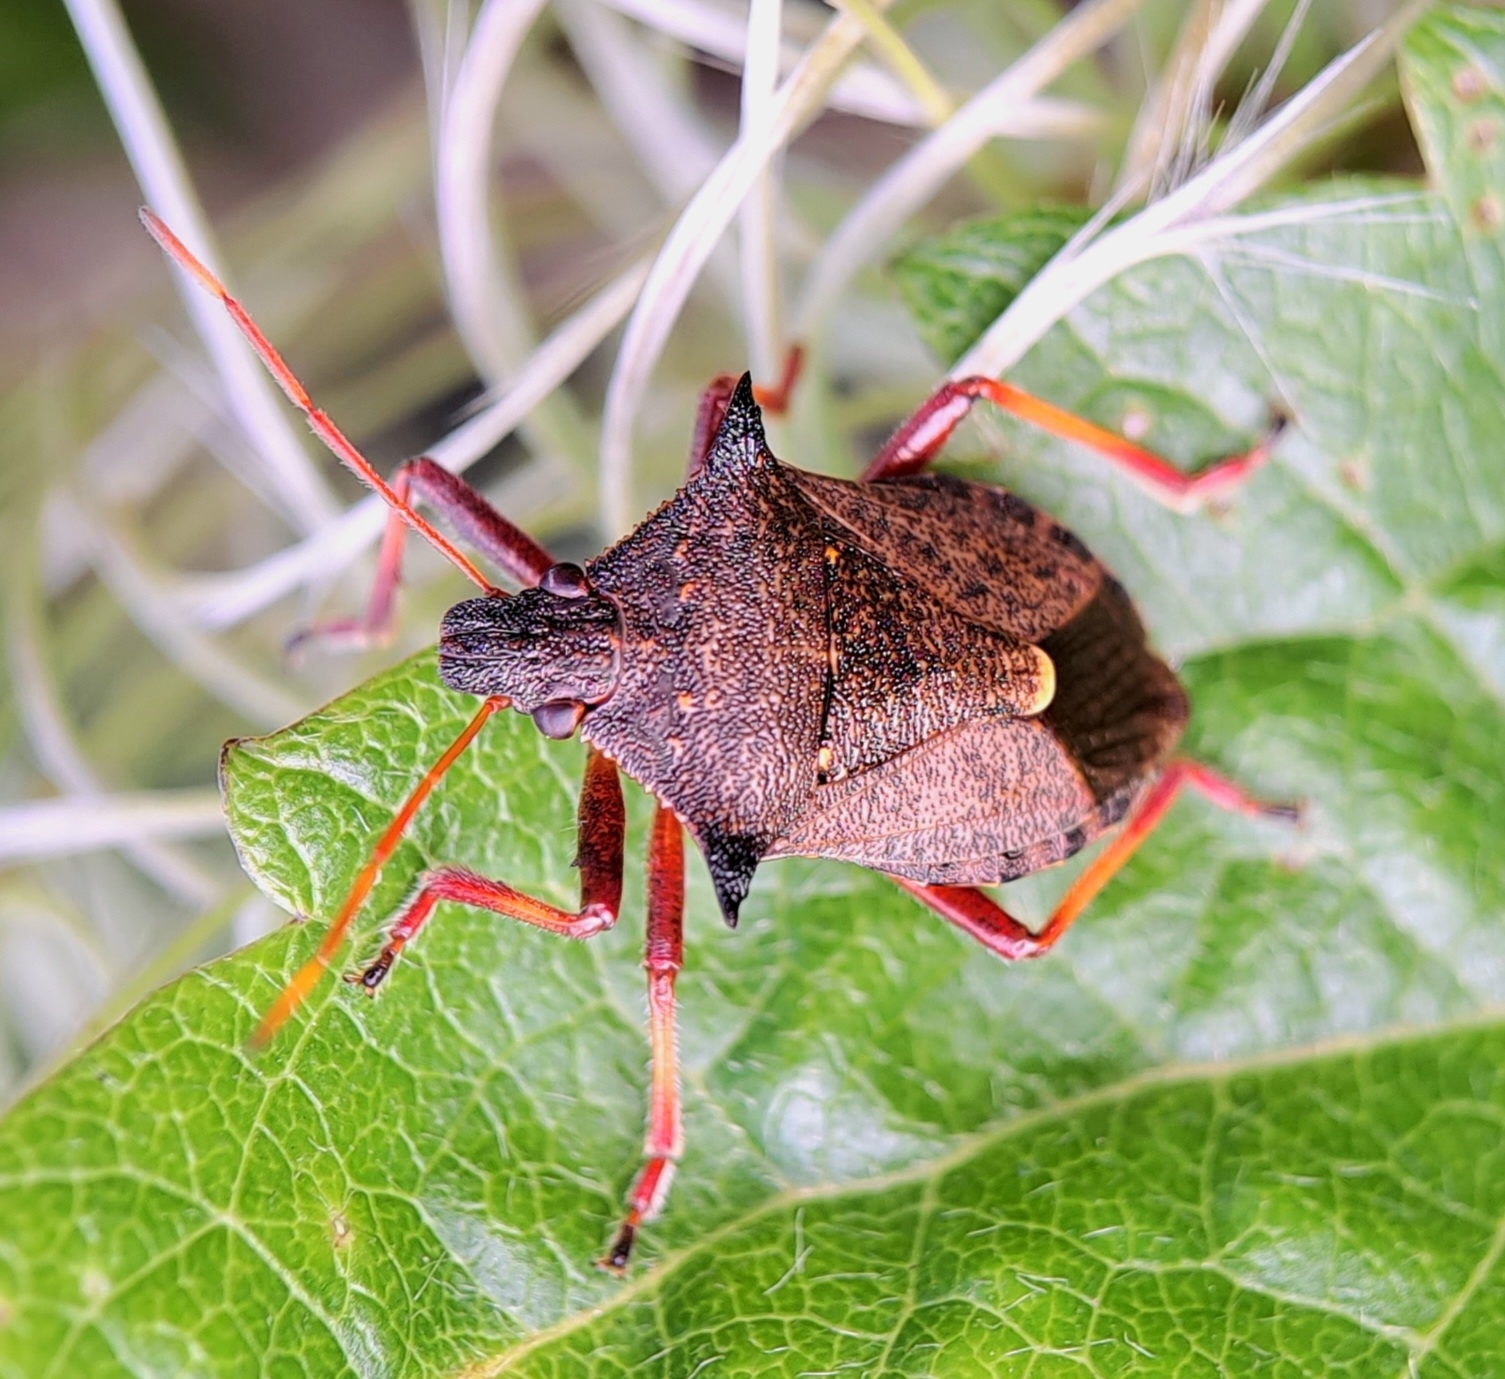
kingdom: Animalia
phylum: Arthropoda
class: Insecta
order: Hemiptera
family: Pentatomidae
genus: Picromerus
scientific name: Picromerus bidens
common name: Spiked shieldbug
